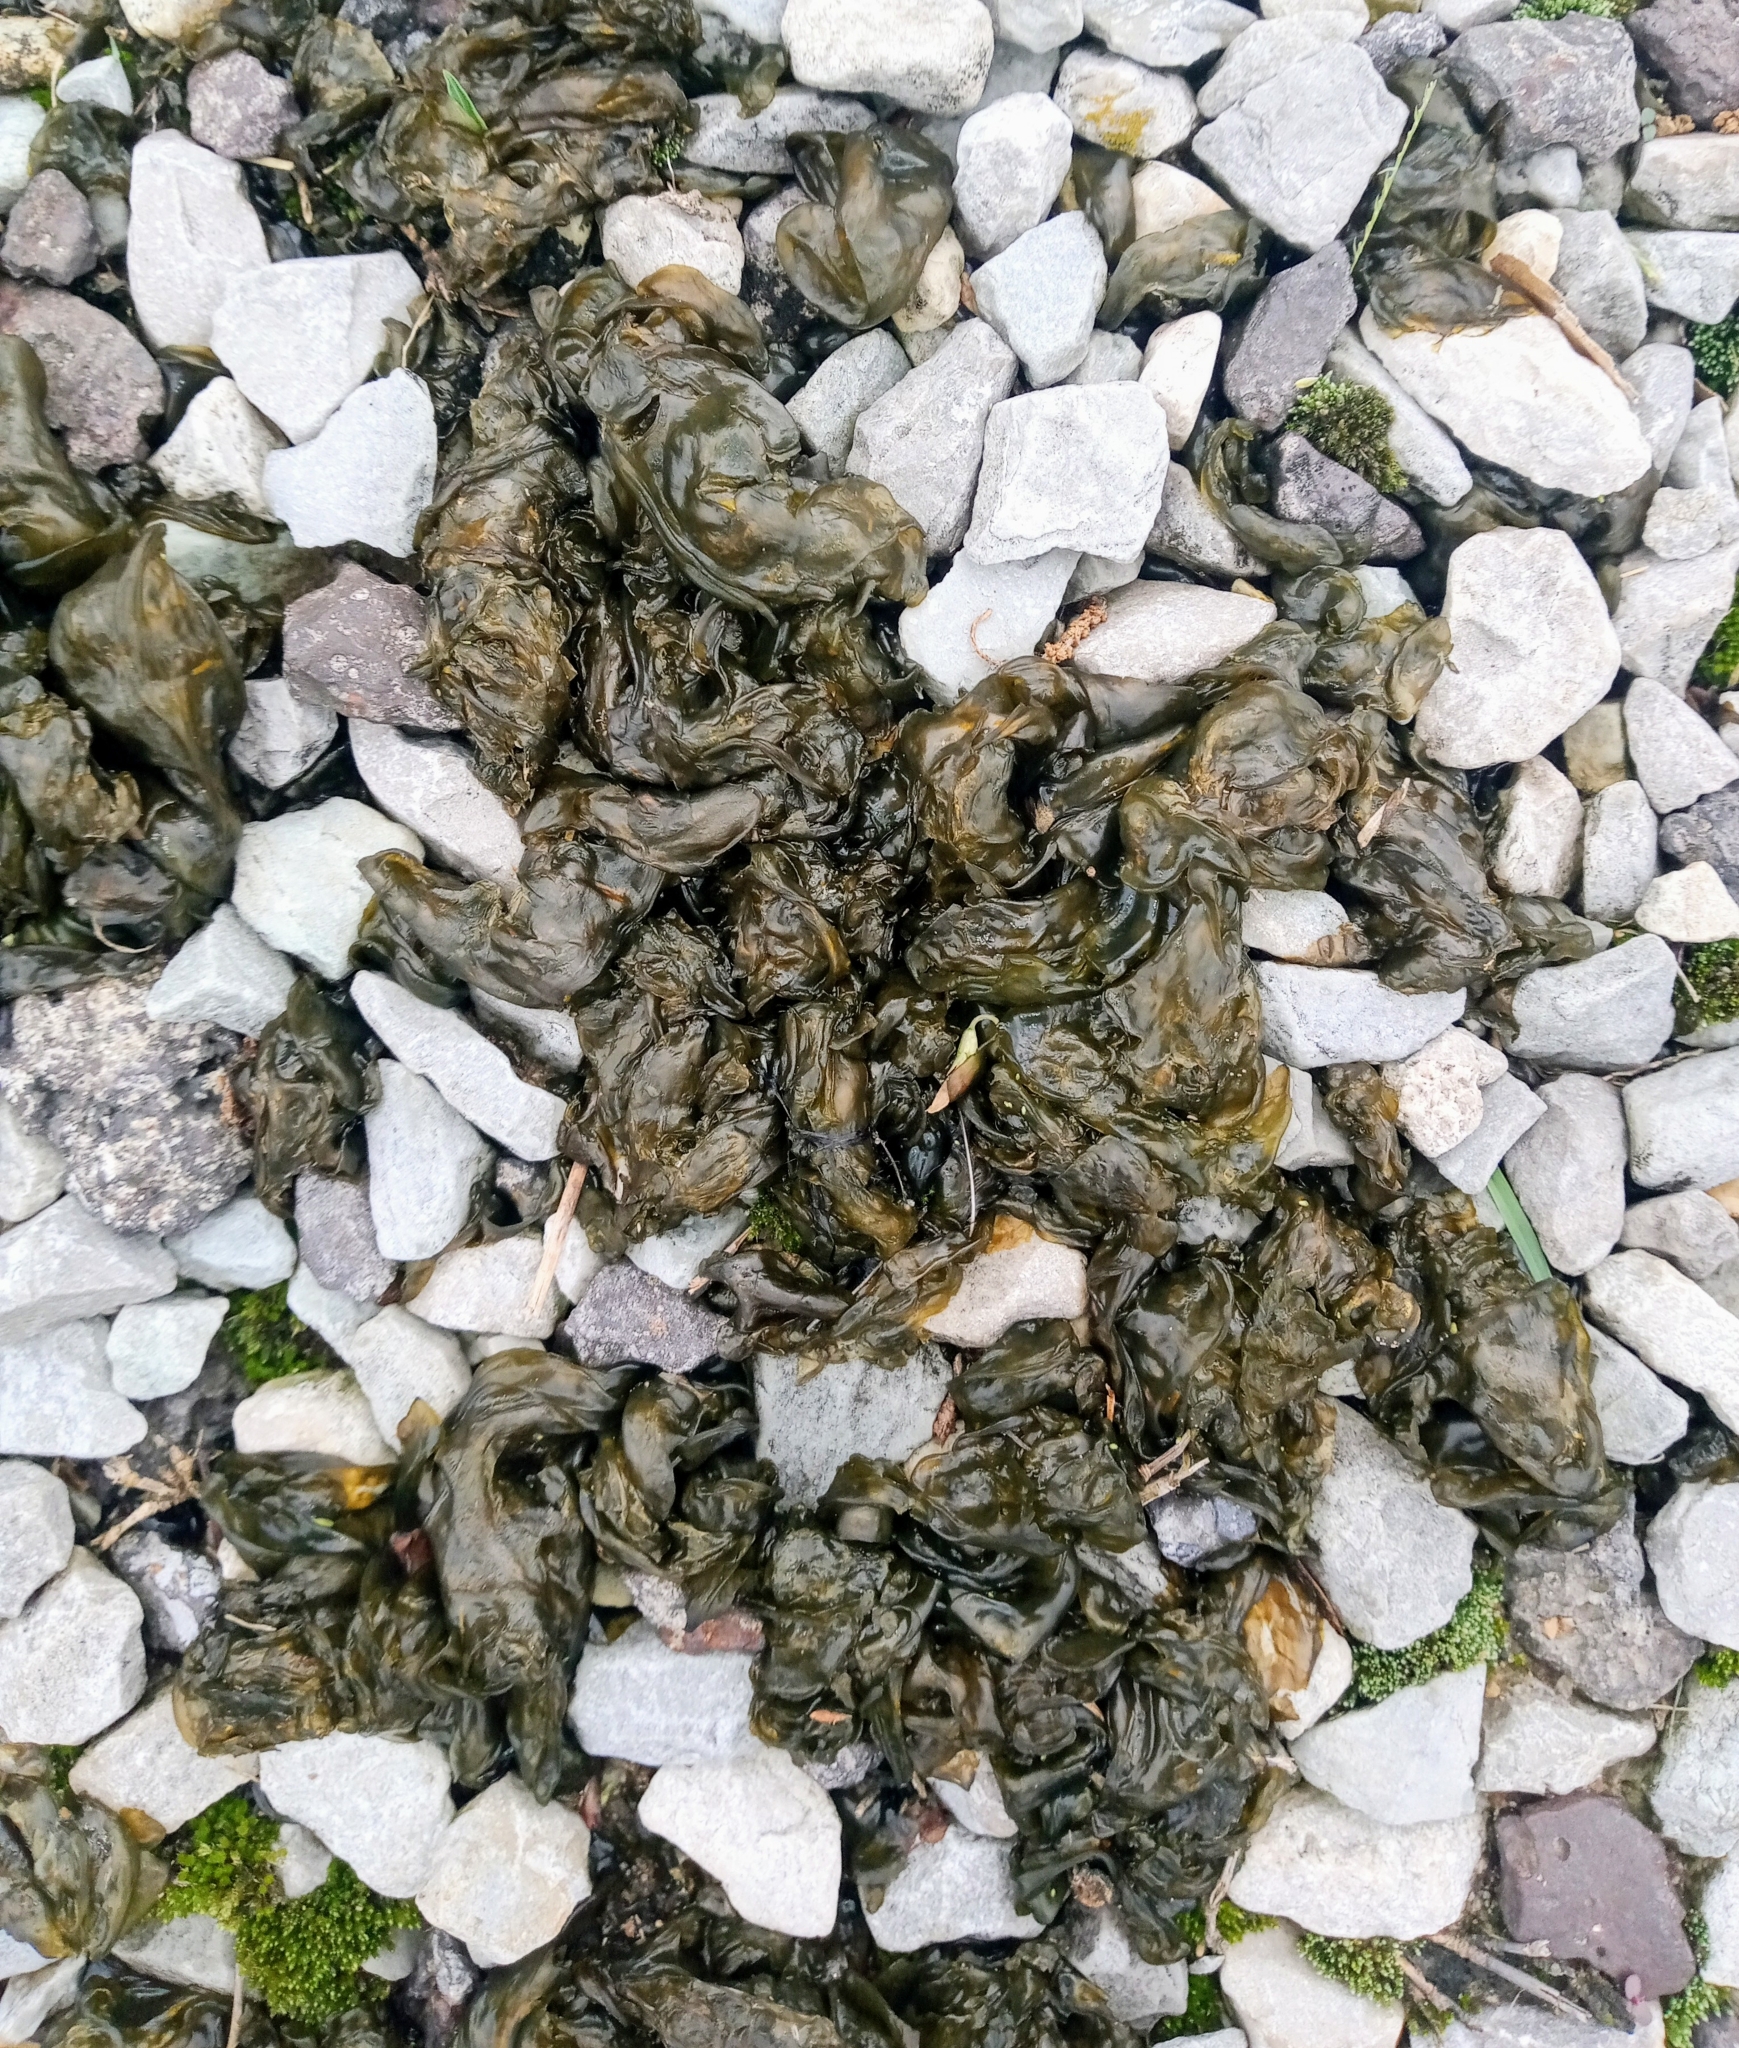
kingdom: Bacteria
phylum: Cyanobacteria
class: Cyanobacteriia
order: Cyanobacteriales
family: Nostocaceae
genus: Nostoc
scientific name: Nostoc commune
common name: Star jelly
